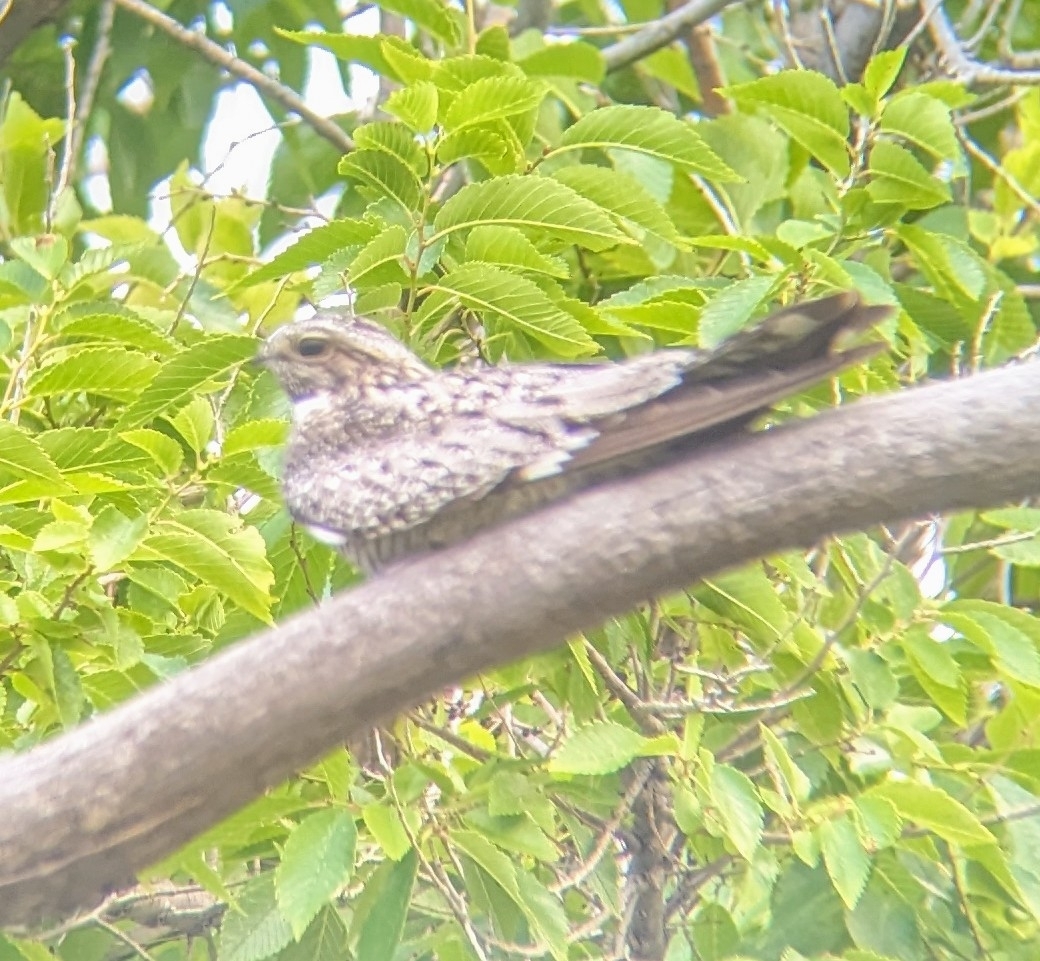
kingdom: Animalia
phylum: Chordata
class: Aves
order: Caprimulgiformes
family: Caprimulgidae
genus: Chordeiles
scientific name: Chordeiles minor
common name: Common nighthawk
